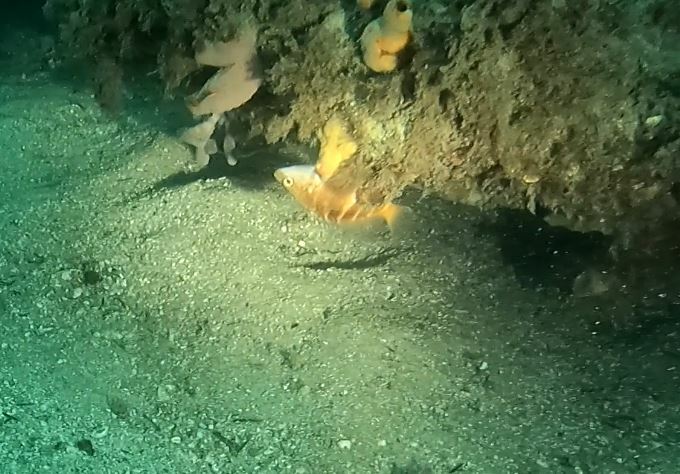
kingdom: Animalia
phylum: Chordata
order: Perciformes
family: Serranidae
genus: Hypoplectrodes
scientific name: Hypoplectrodes maccullochi
